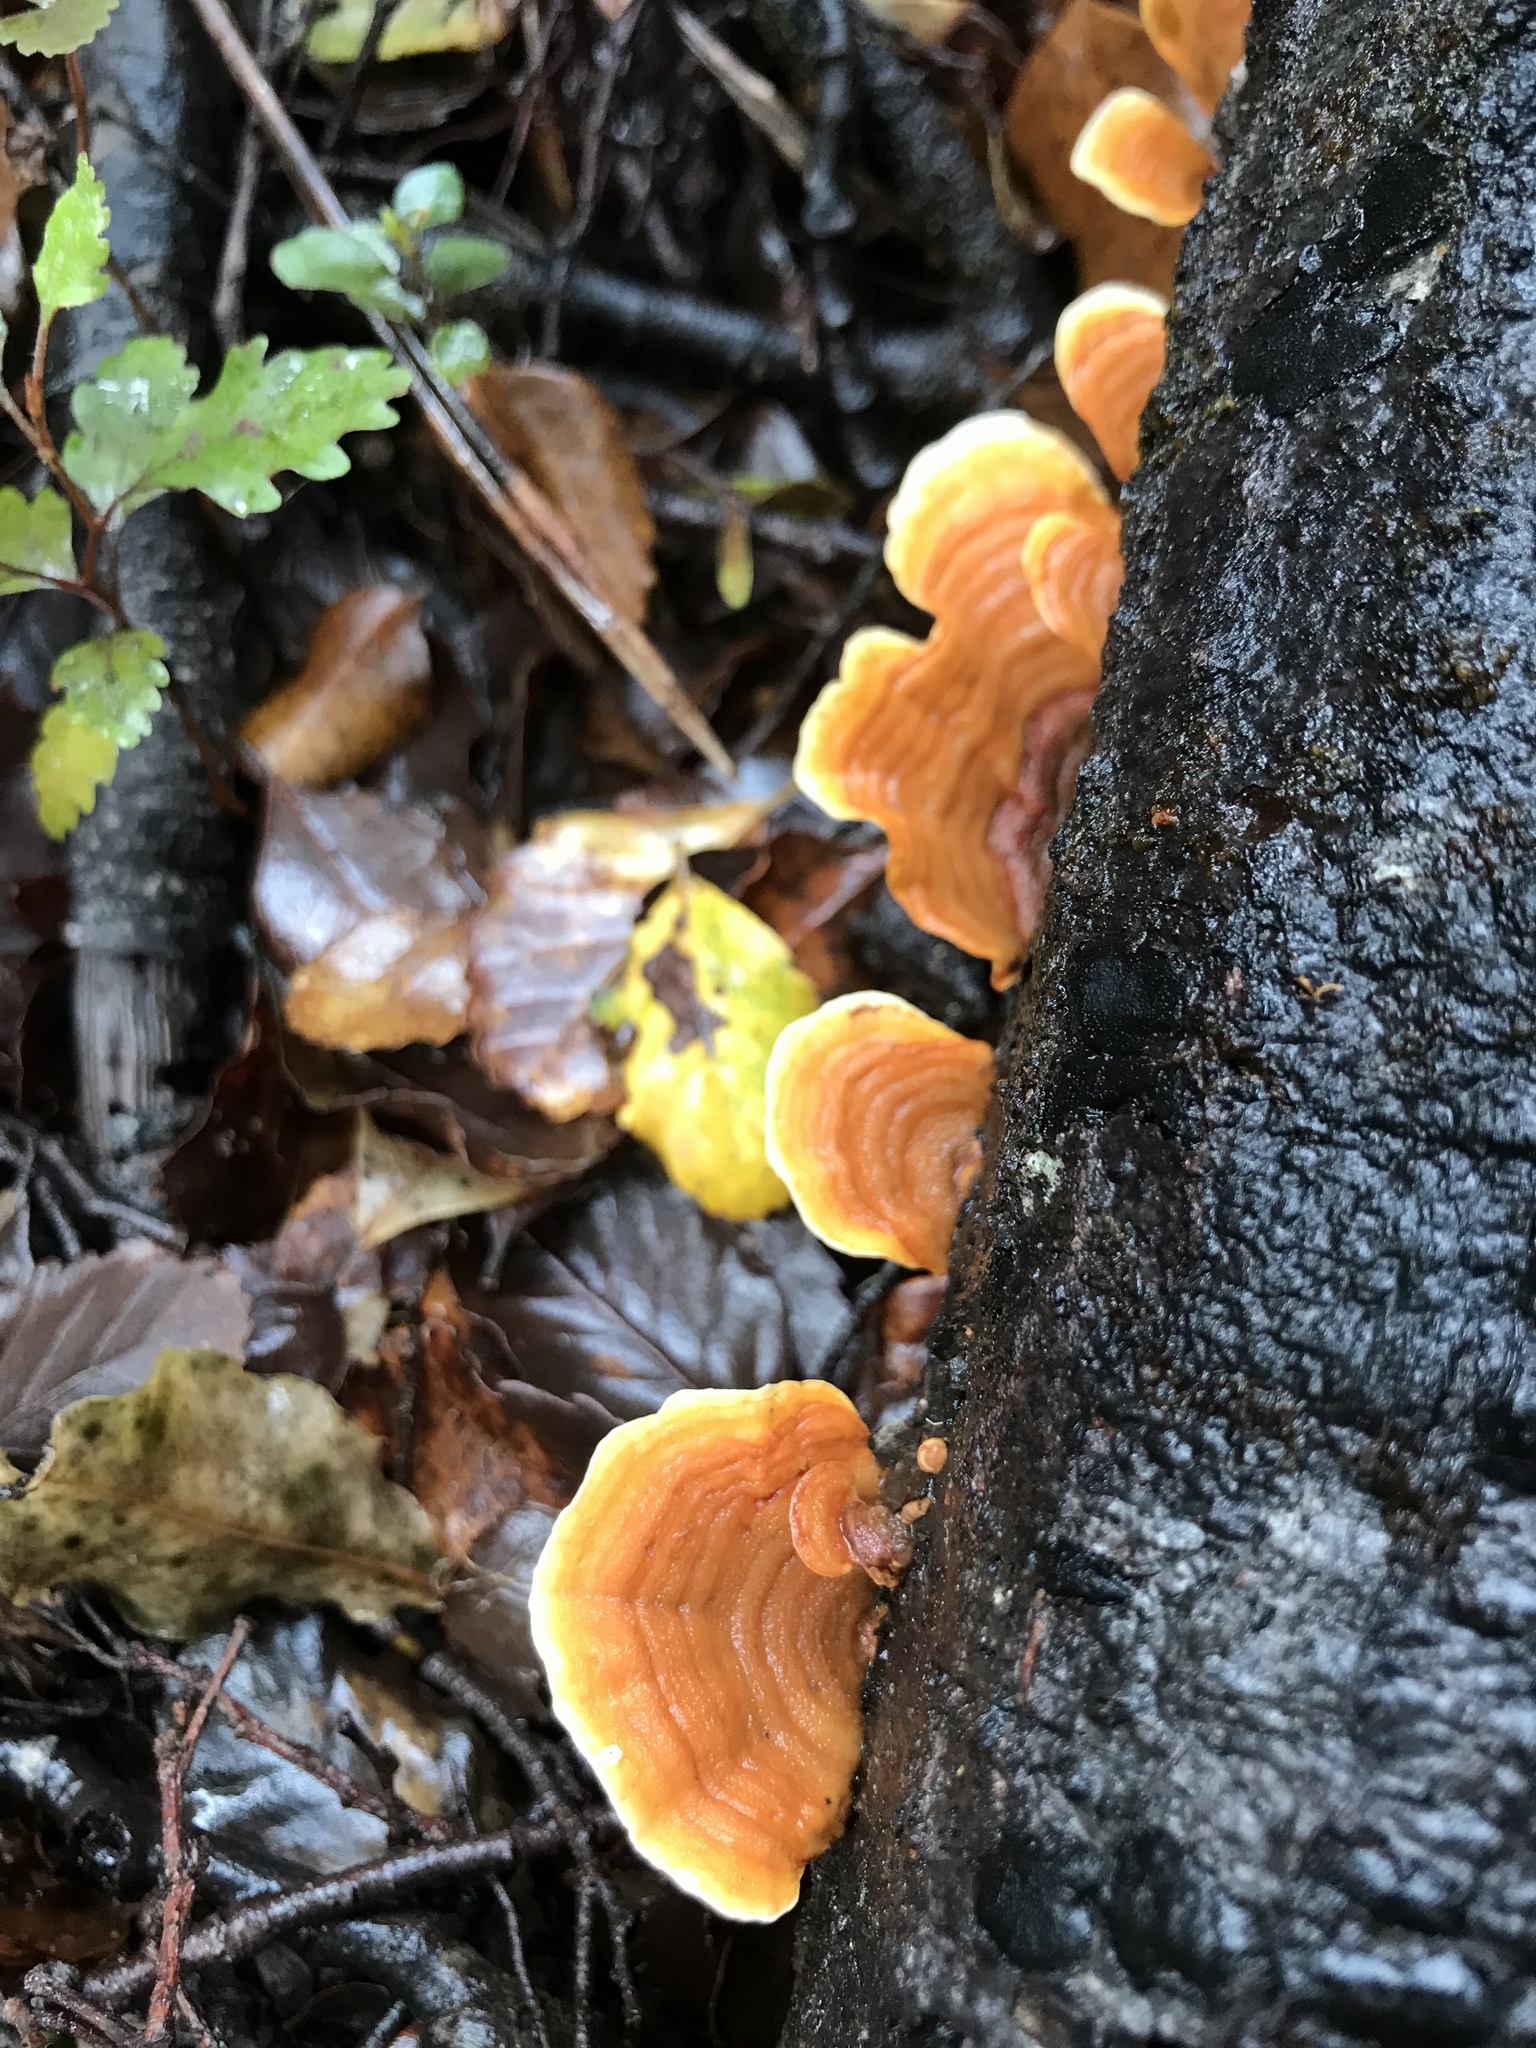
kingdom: Fungi
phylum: Basidiomycota
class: Agaricomycetes
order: Russulales
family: Stereaceae
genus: Stereum
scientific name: Stereum versicolor
